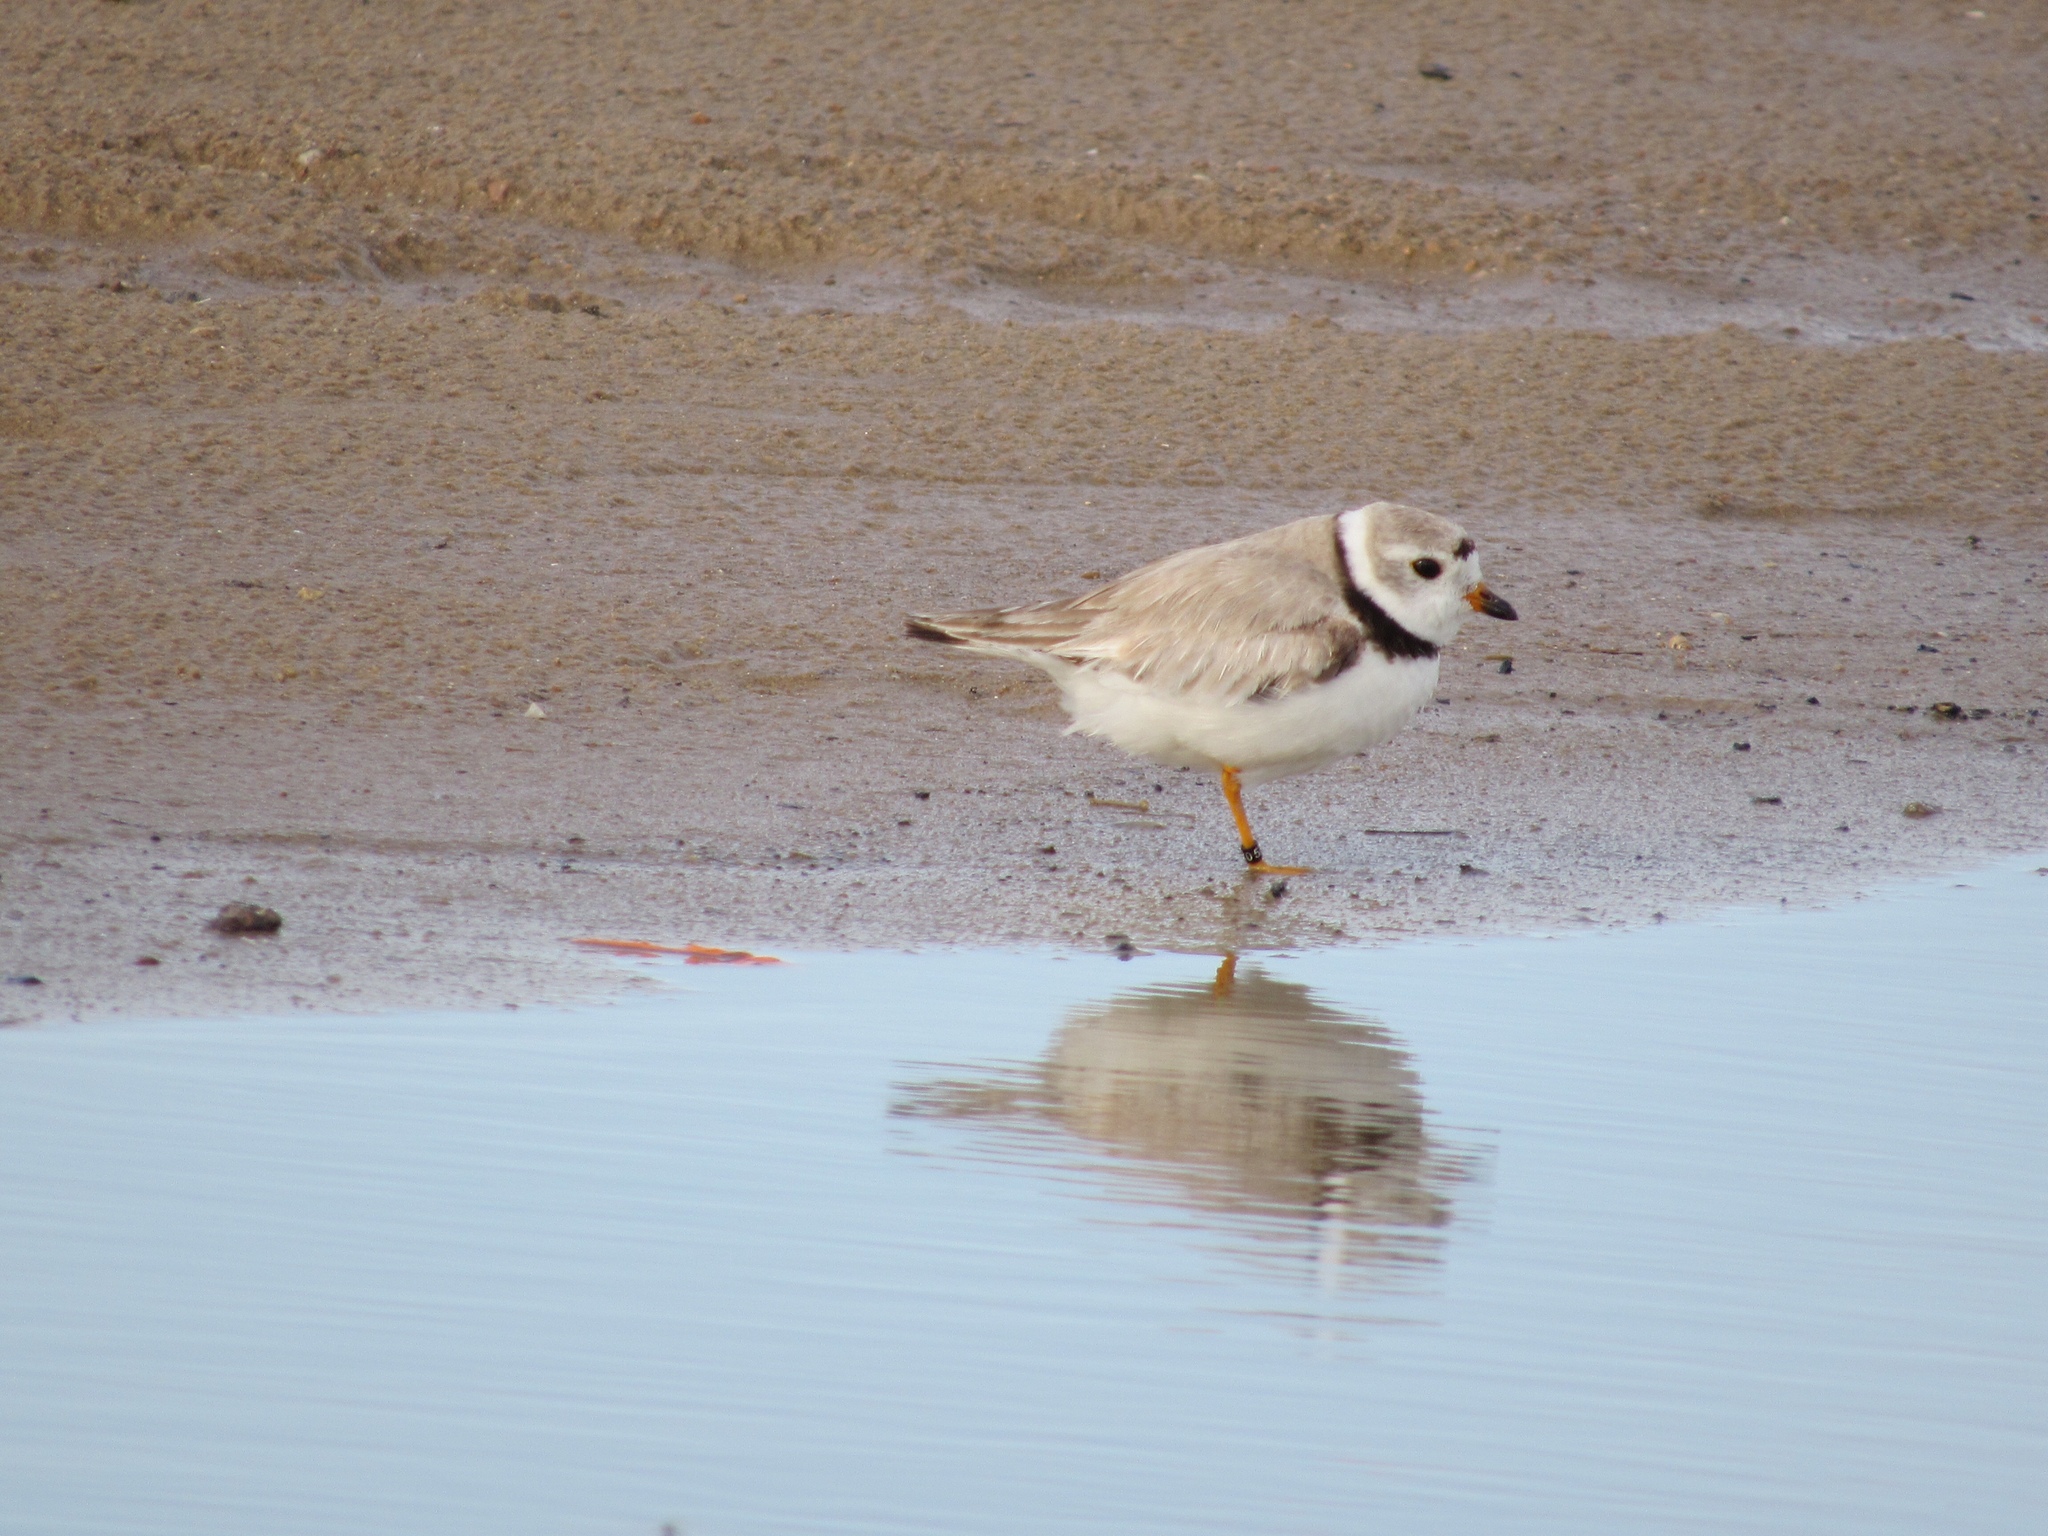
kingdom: Animalia
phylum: Chordata
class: Aves
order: Charadriiformes
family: Charadriidae
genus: Charadrius
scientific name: Charadrius melodus
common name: Piping plover
